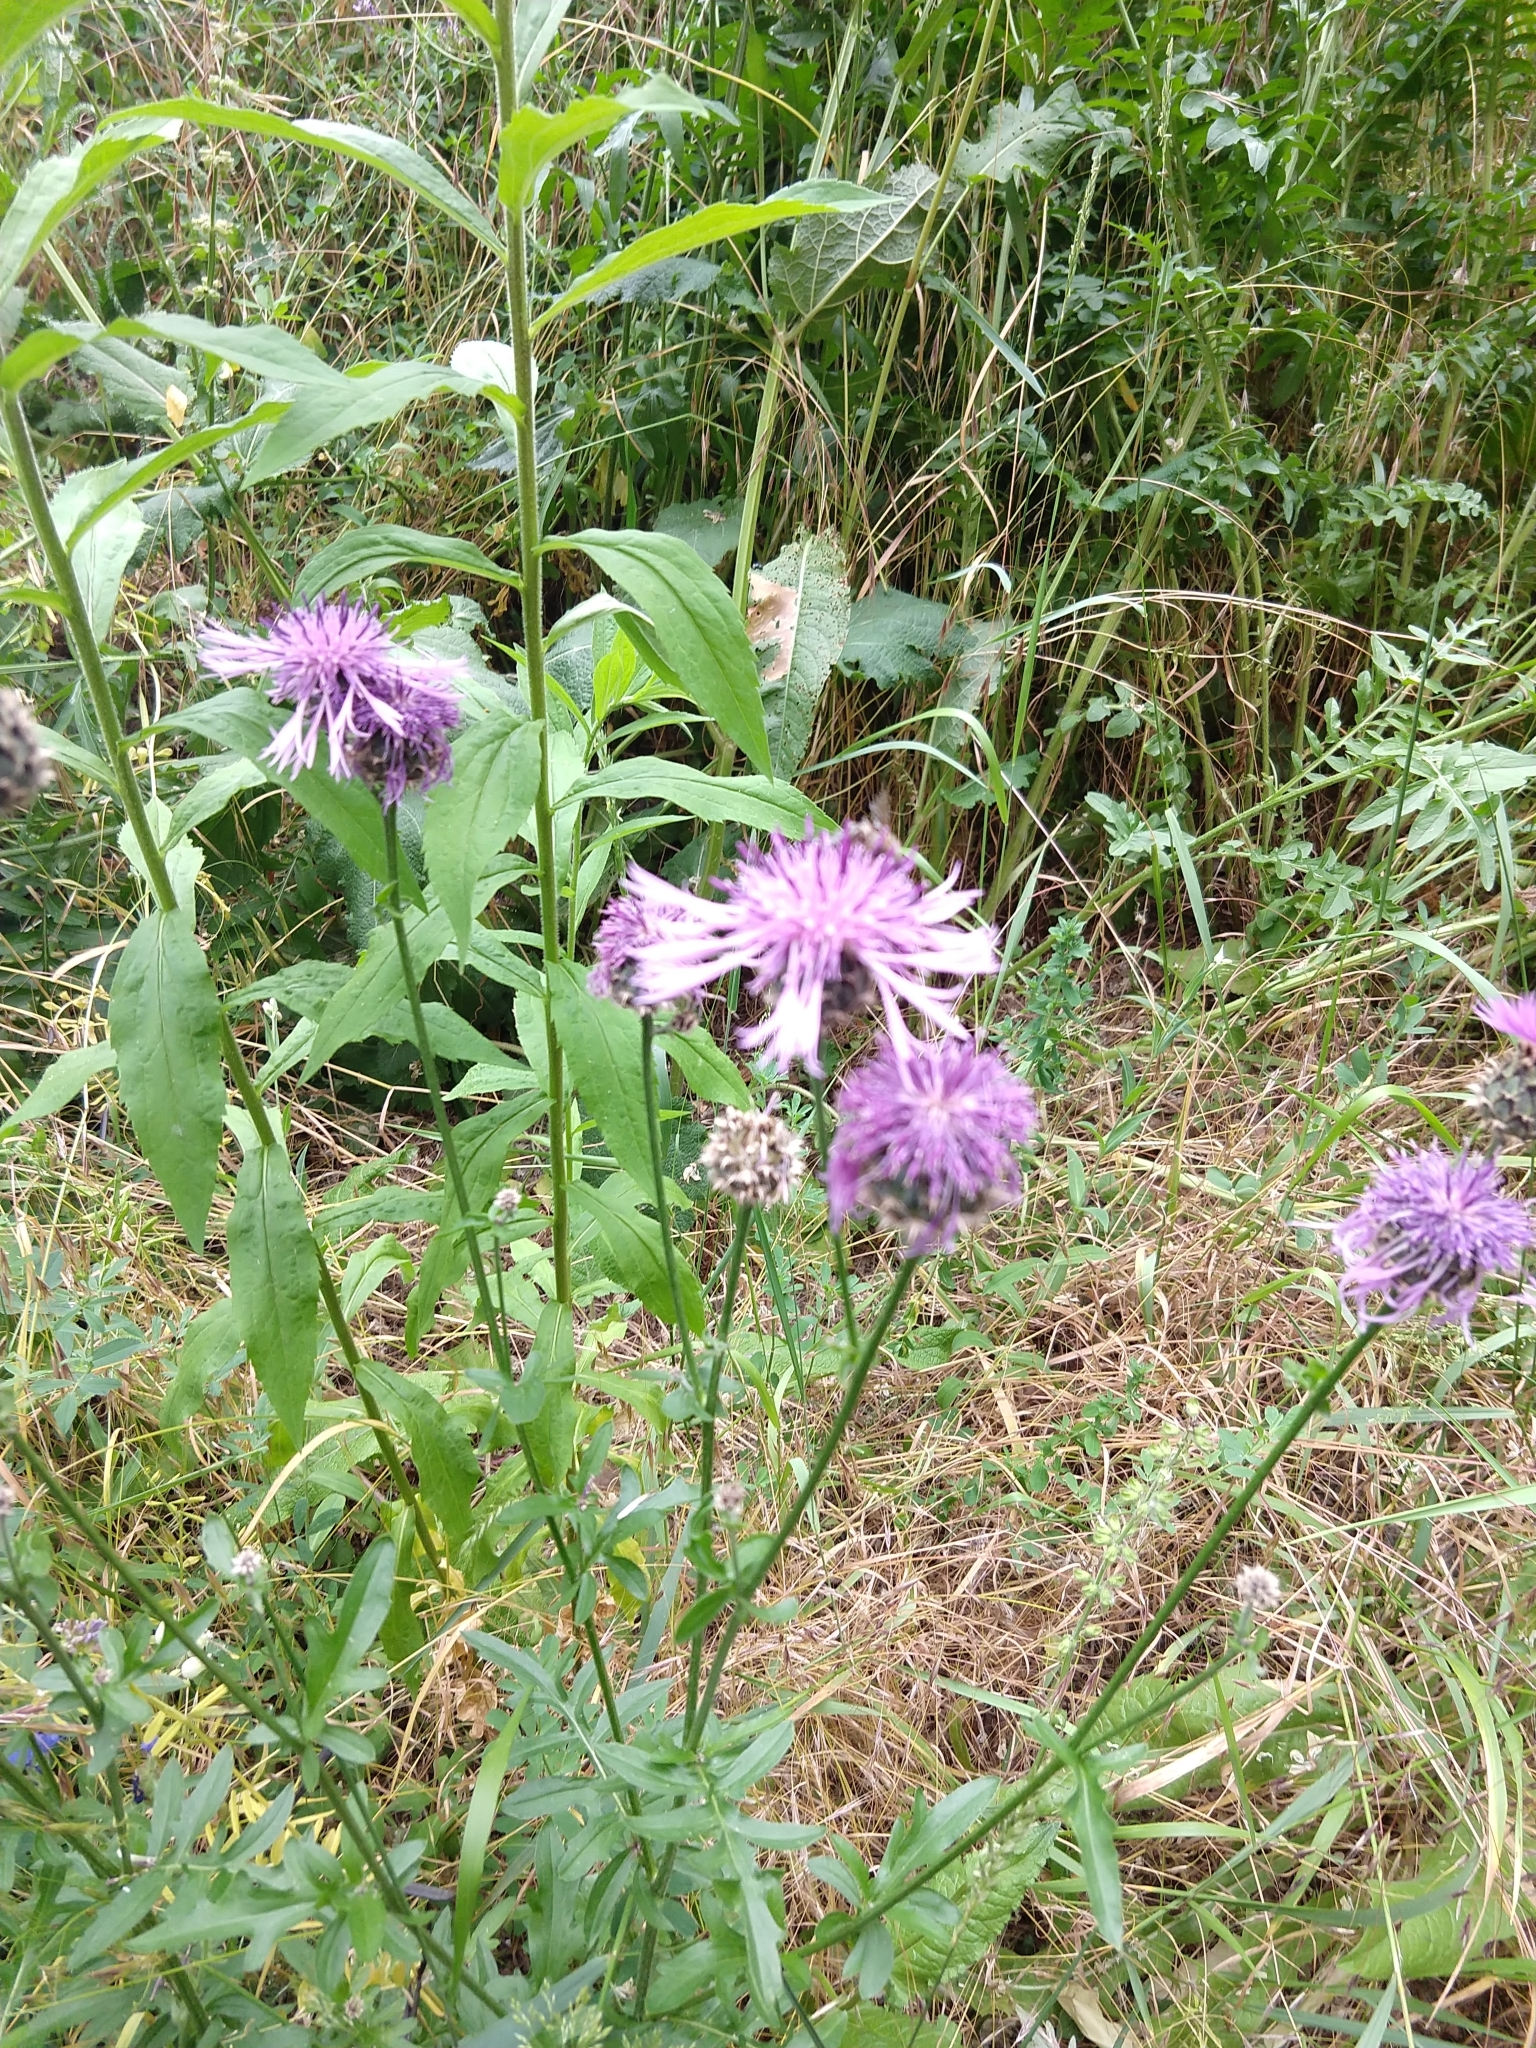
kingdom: Plantae
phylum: Tracheophyta
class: Magnoliopsida
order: Asterales
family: Asteraceae
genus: Centaurea
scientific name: Centaurea scabiosa
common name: Greater knapweed
